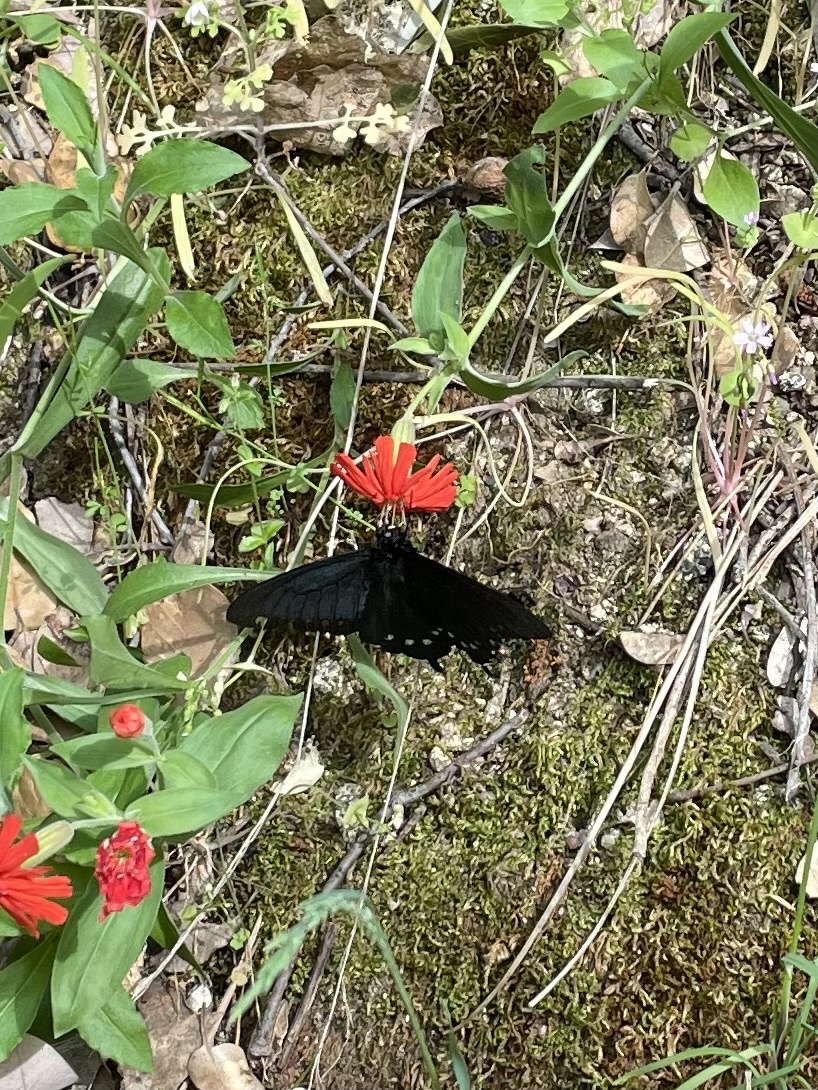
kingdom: Animalia
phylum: Arthropoda
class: Insecta
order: Lepidoptera
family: Papilionidae
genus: Battus
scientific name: Battus philenor
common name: Pipevine swallowtail
